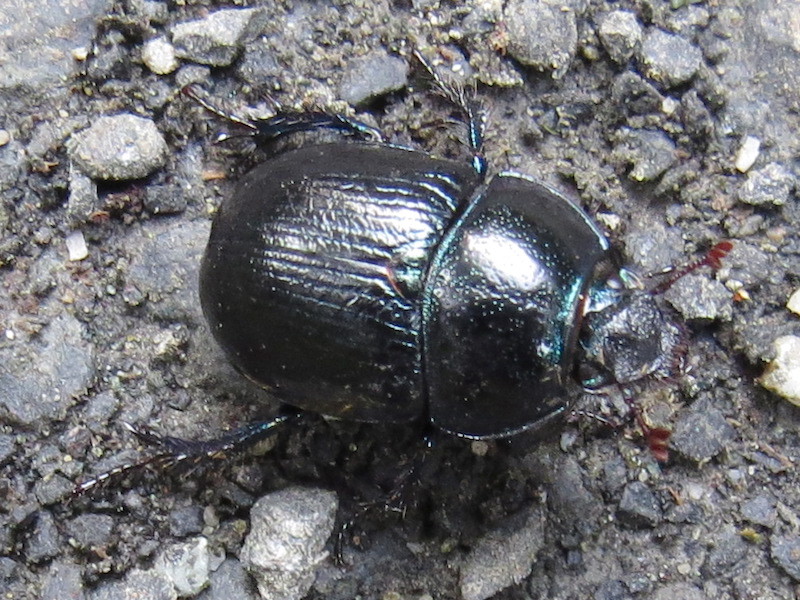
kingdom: Animalia
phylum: Arthropoda
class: Insecta
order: Coleoptera
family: Geotrupidae
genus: Anoplotrupes
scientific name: Anoplotrupes stercorosus
